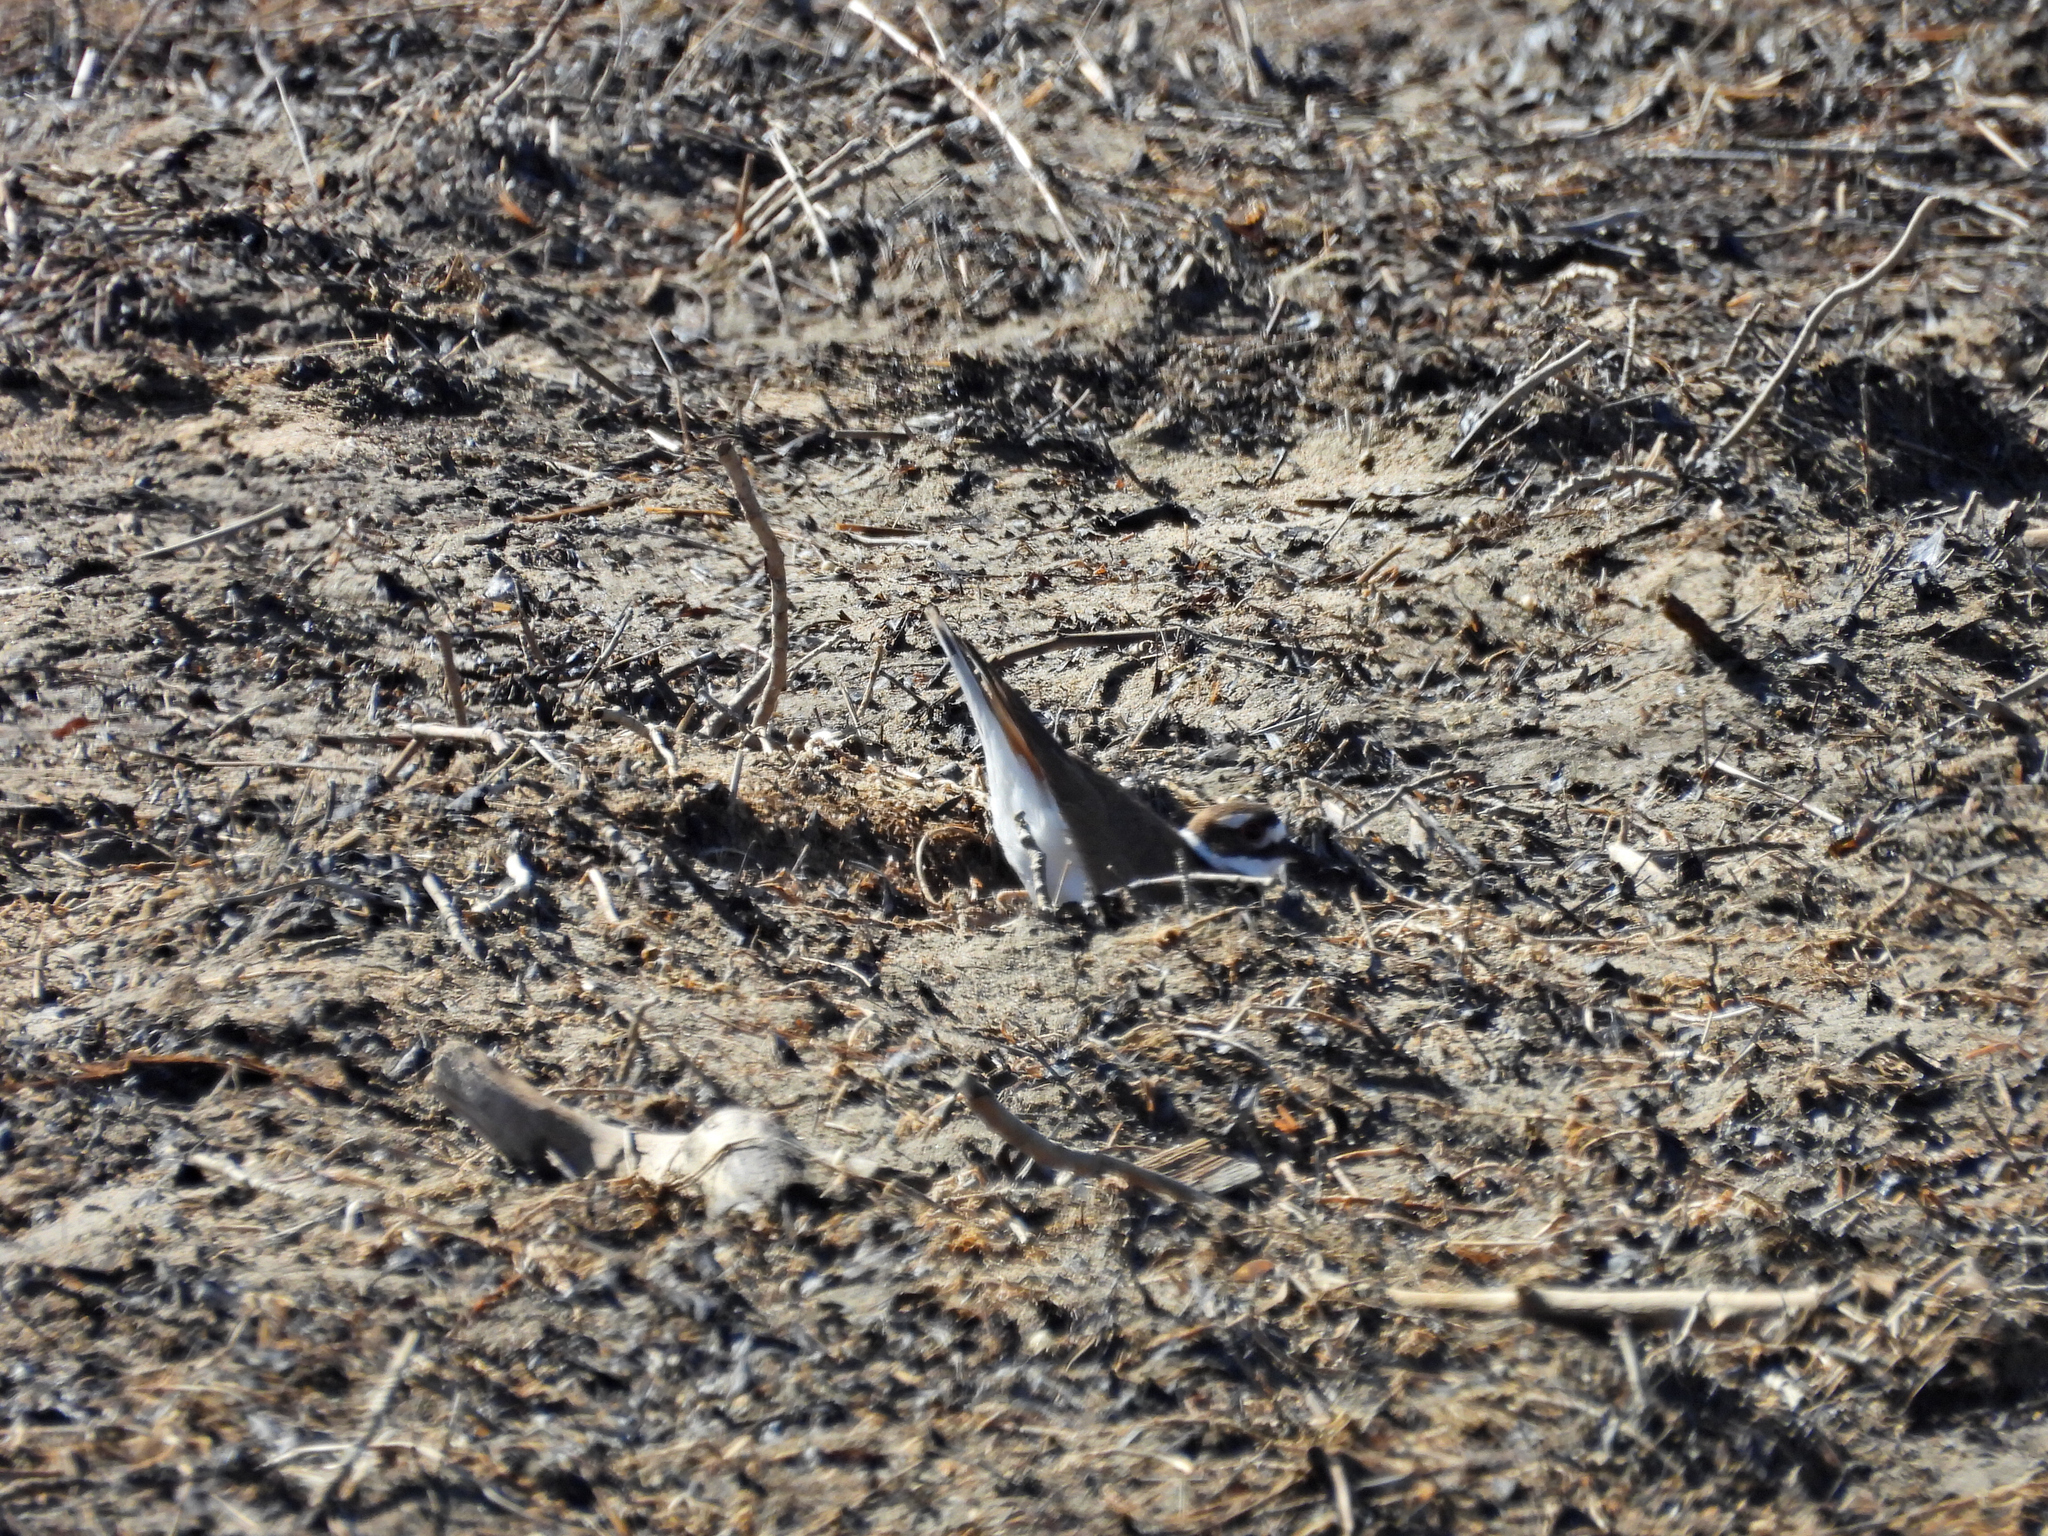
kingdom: Animalia
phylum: Chordata
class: Aves
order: Charadriiformes
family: Charadriidae
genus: Charadrius
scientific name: Charadrius vociferus
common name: Killdeer
